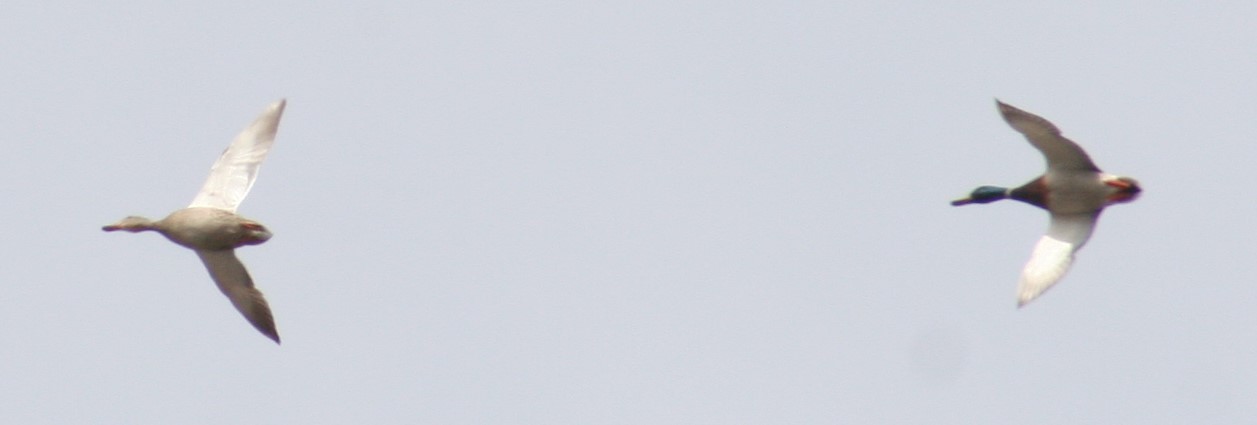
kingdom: Animalia
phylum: Chordata
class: Aves
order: Anseriformes
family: Anatidae
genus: Anas
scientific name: Anas platyrhynchos
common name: Mallard
